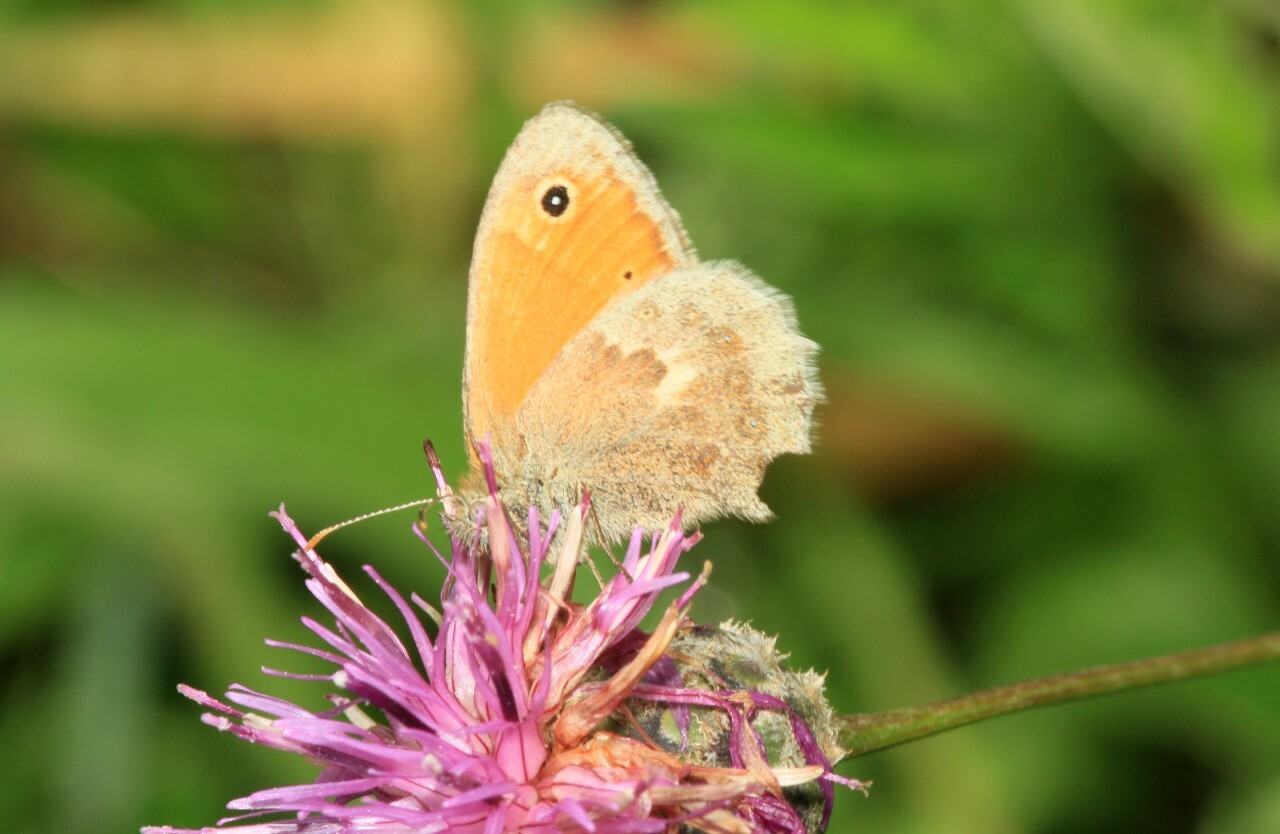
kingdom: Animalia
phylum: Arthropoda
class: Insecta
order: Lepidoptera
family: Nymphalidae
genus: Coenonympha
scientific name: Coenonympha pamphilus
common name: Small heath
